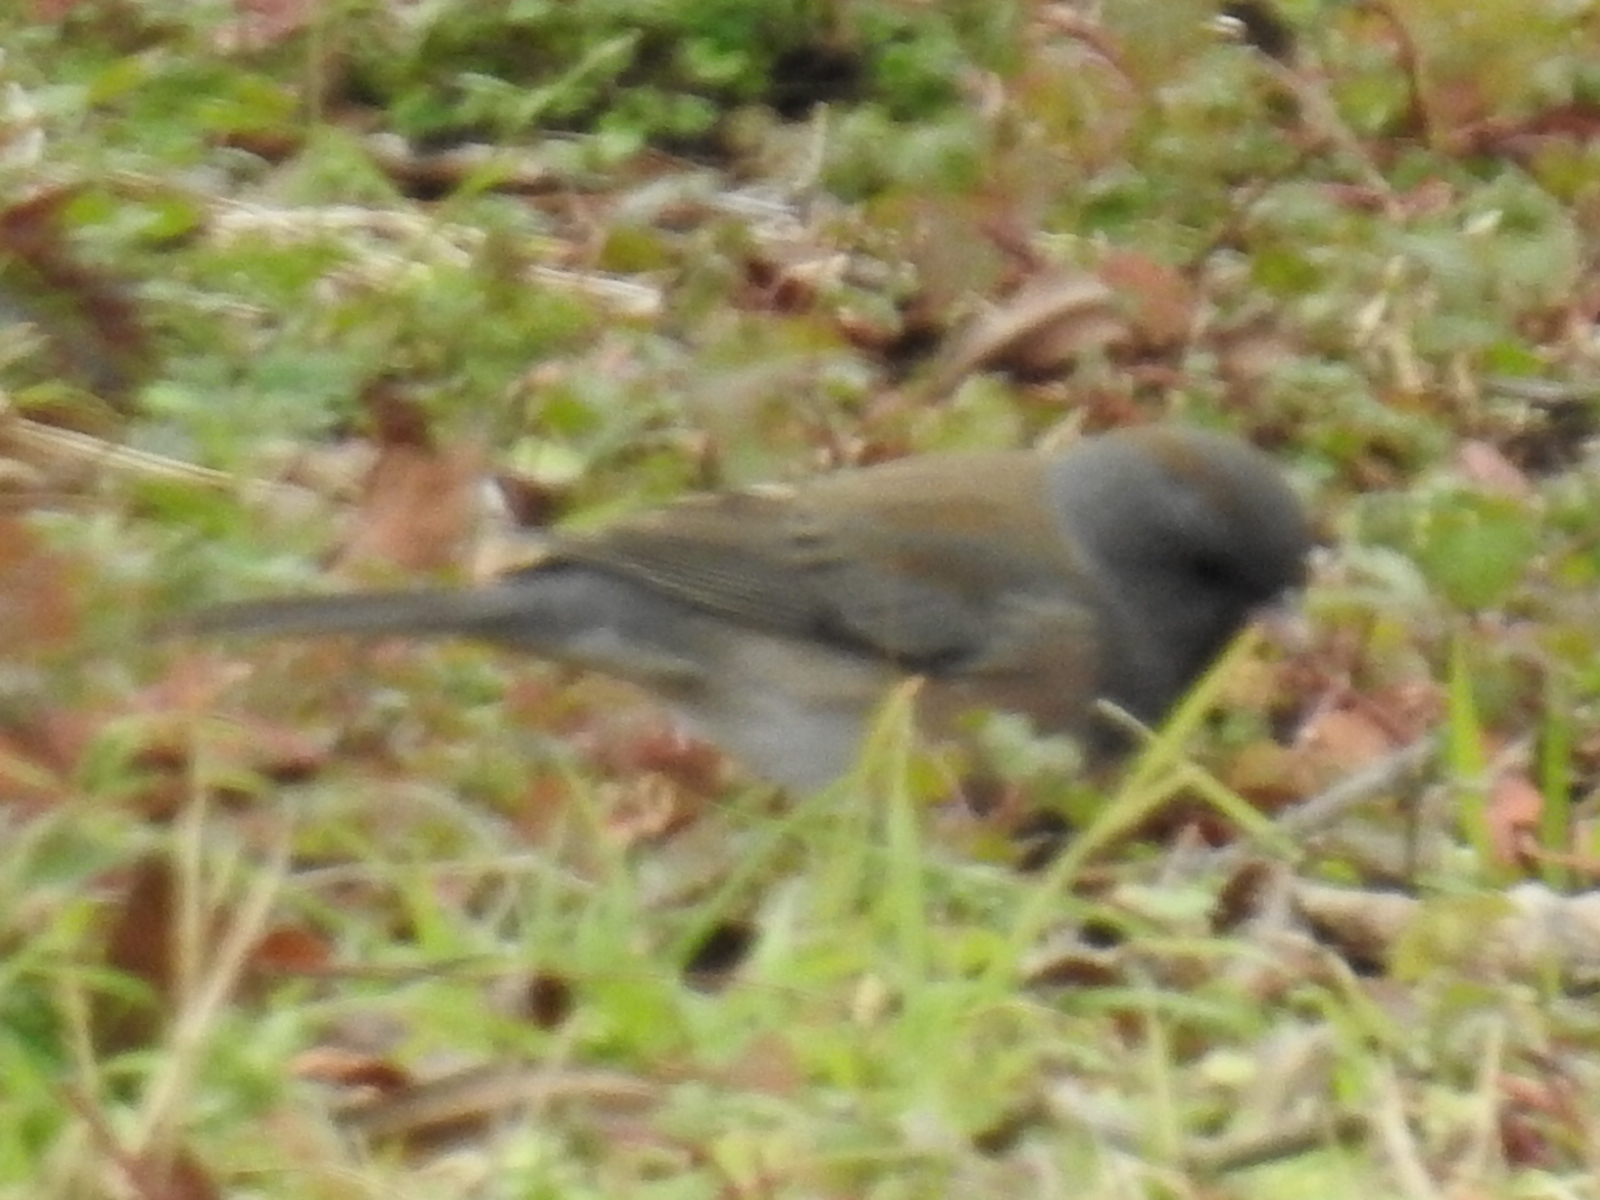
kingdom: Animalia
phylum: Chordata
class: Aves
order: Passeriformes
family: Passerellidae
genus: Junco
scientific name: Junco hyemalis
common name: Dark-eyed junco
